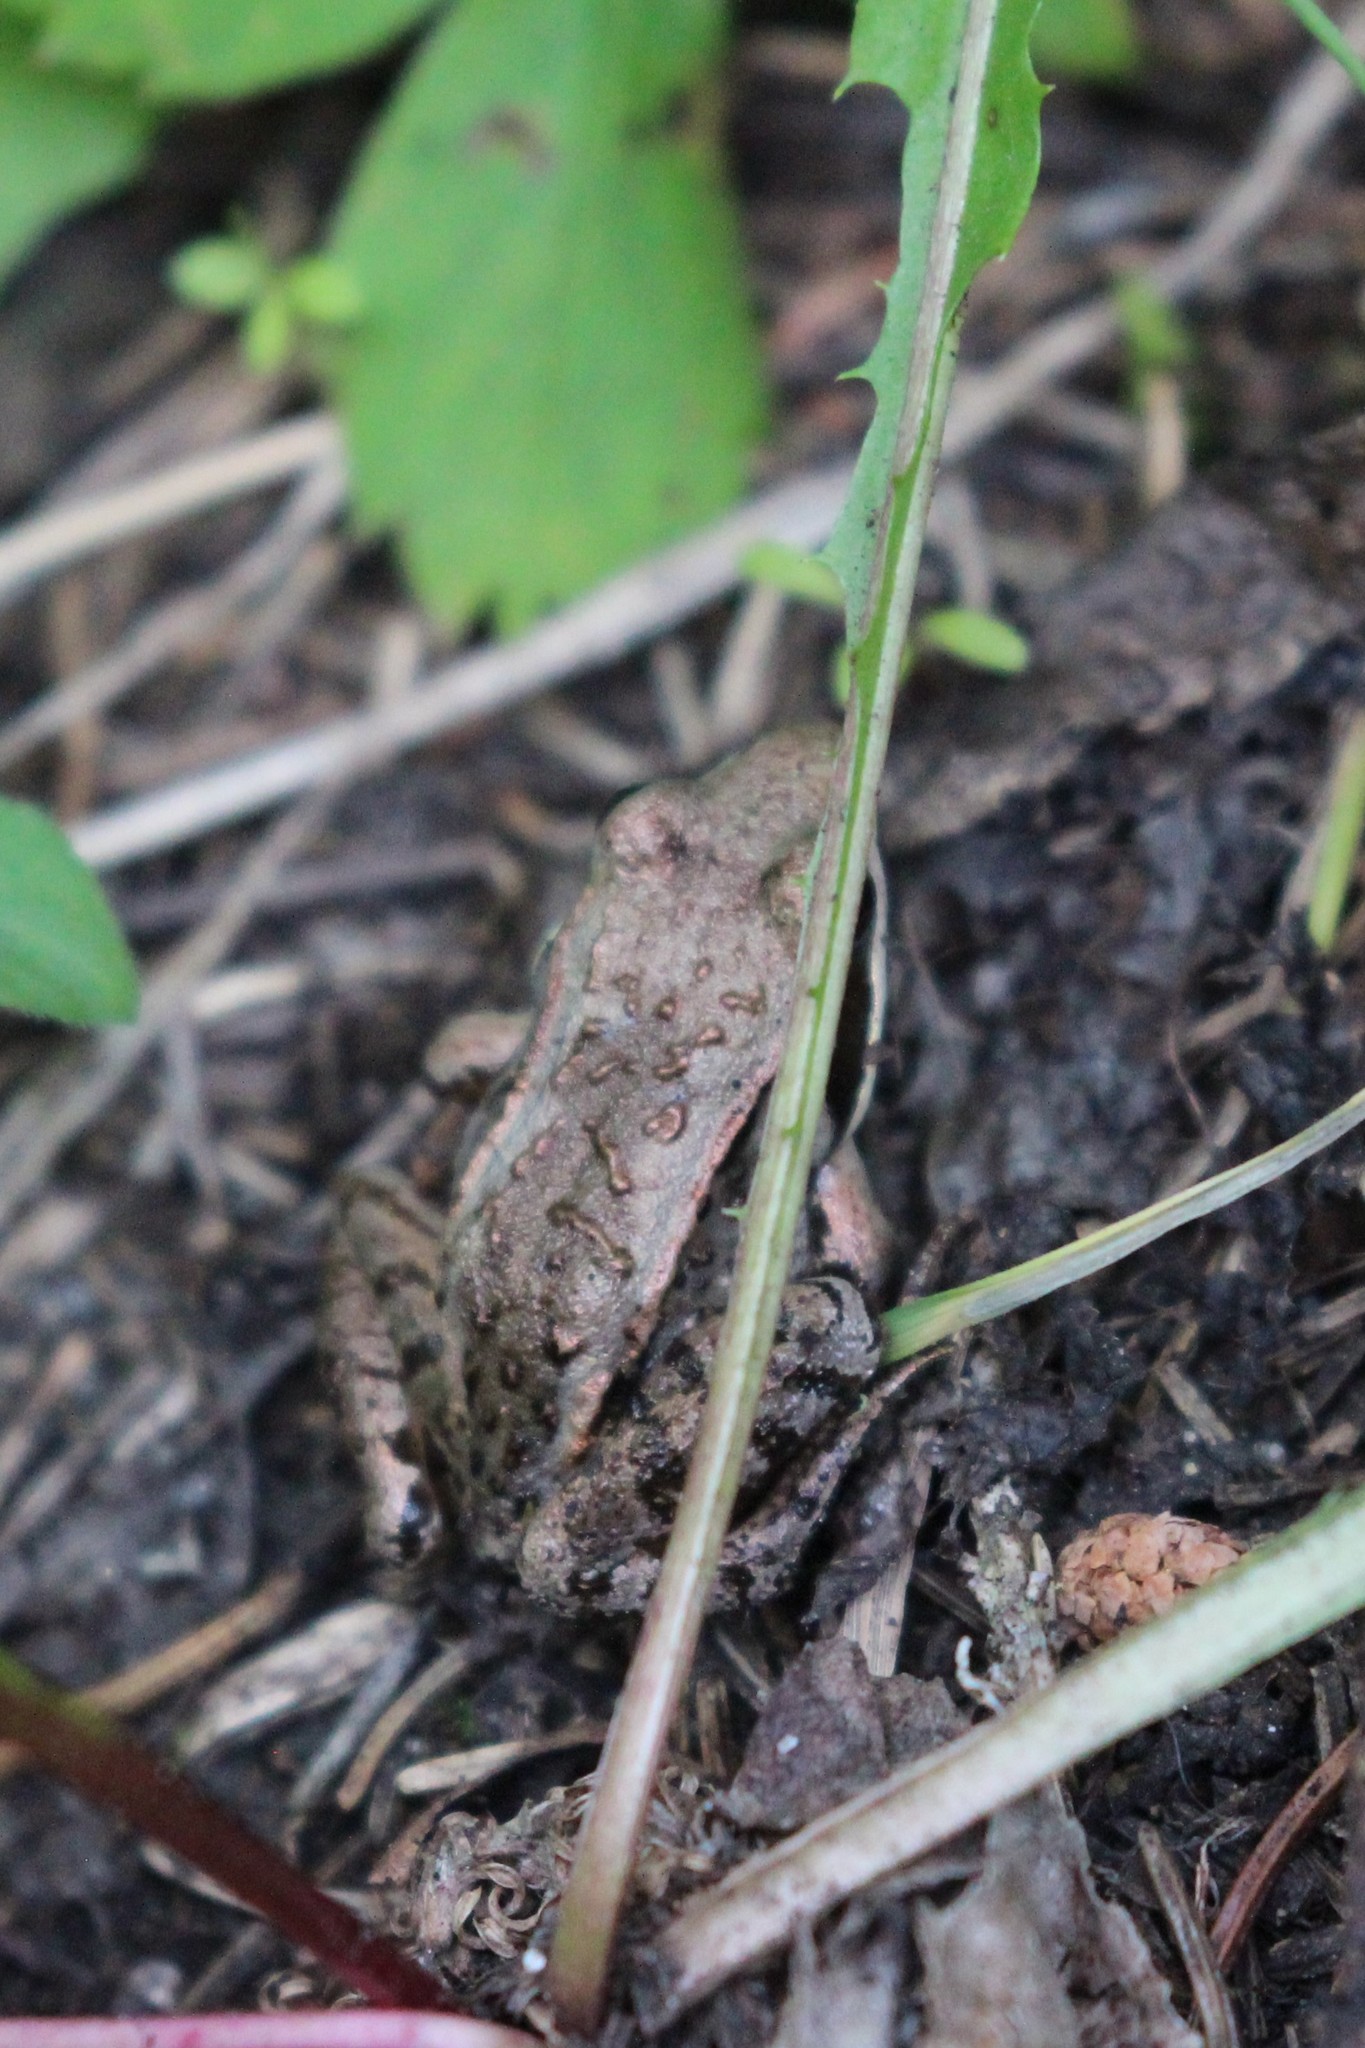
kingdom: Animalia
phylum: Chordata
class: Amphibia
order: Anura
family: Ranidae
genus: Lithobates
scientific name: Lithobates sylvaticus
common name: Wood frog
